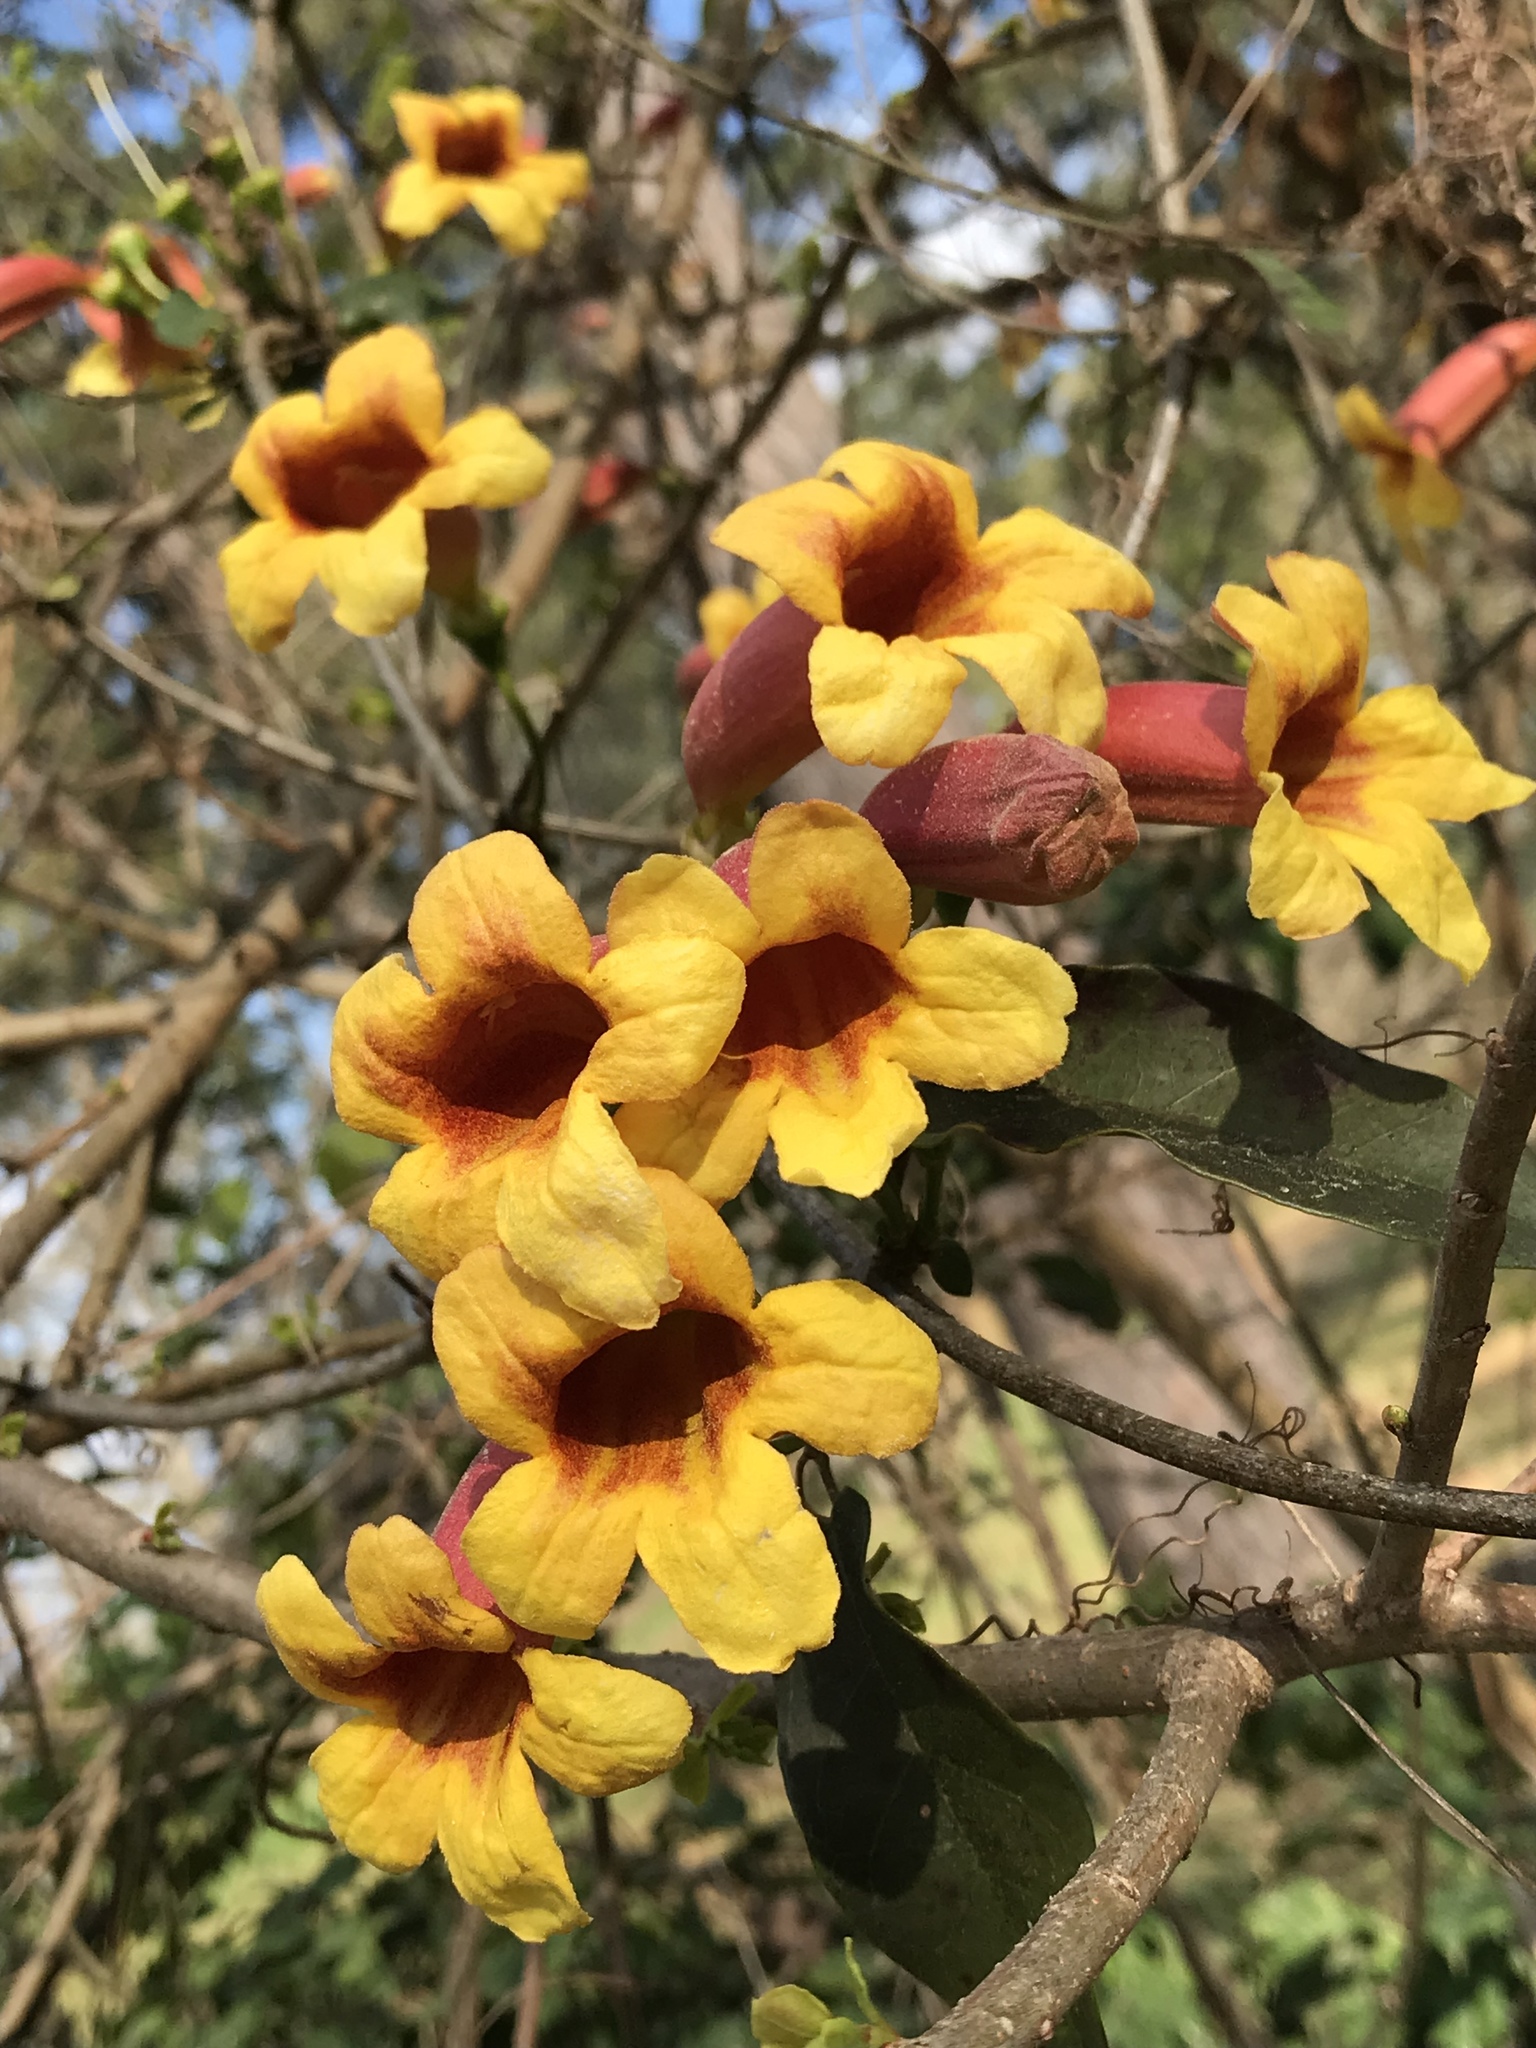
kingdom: Plantae
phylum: Tracheophyta
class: Magnoliopsida
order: Lamiales
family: Bignoniaceae
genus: Bignonia
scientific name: Bignonia capreolata
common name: Crossvine
